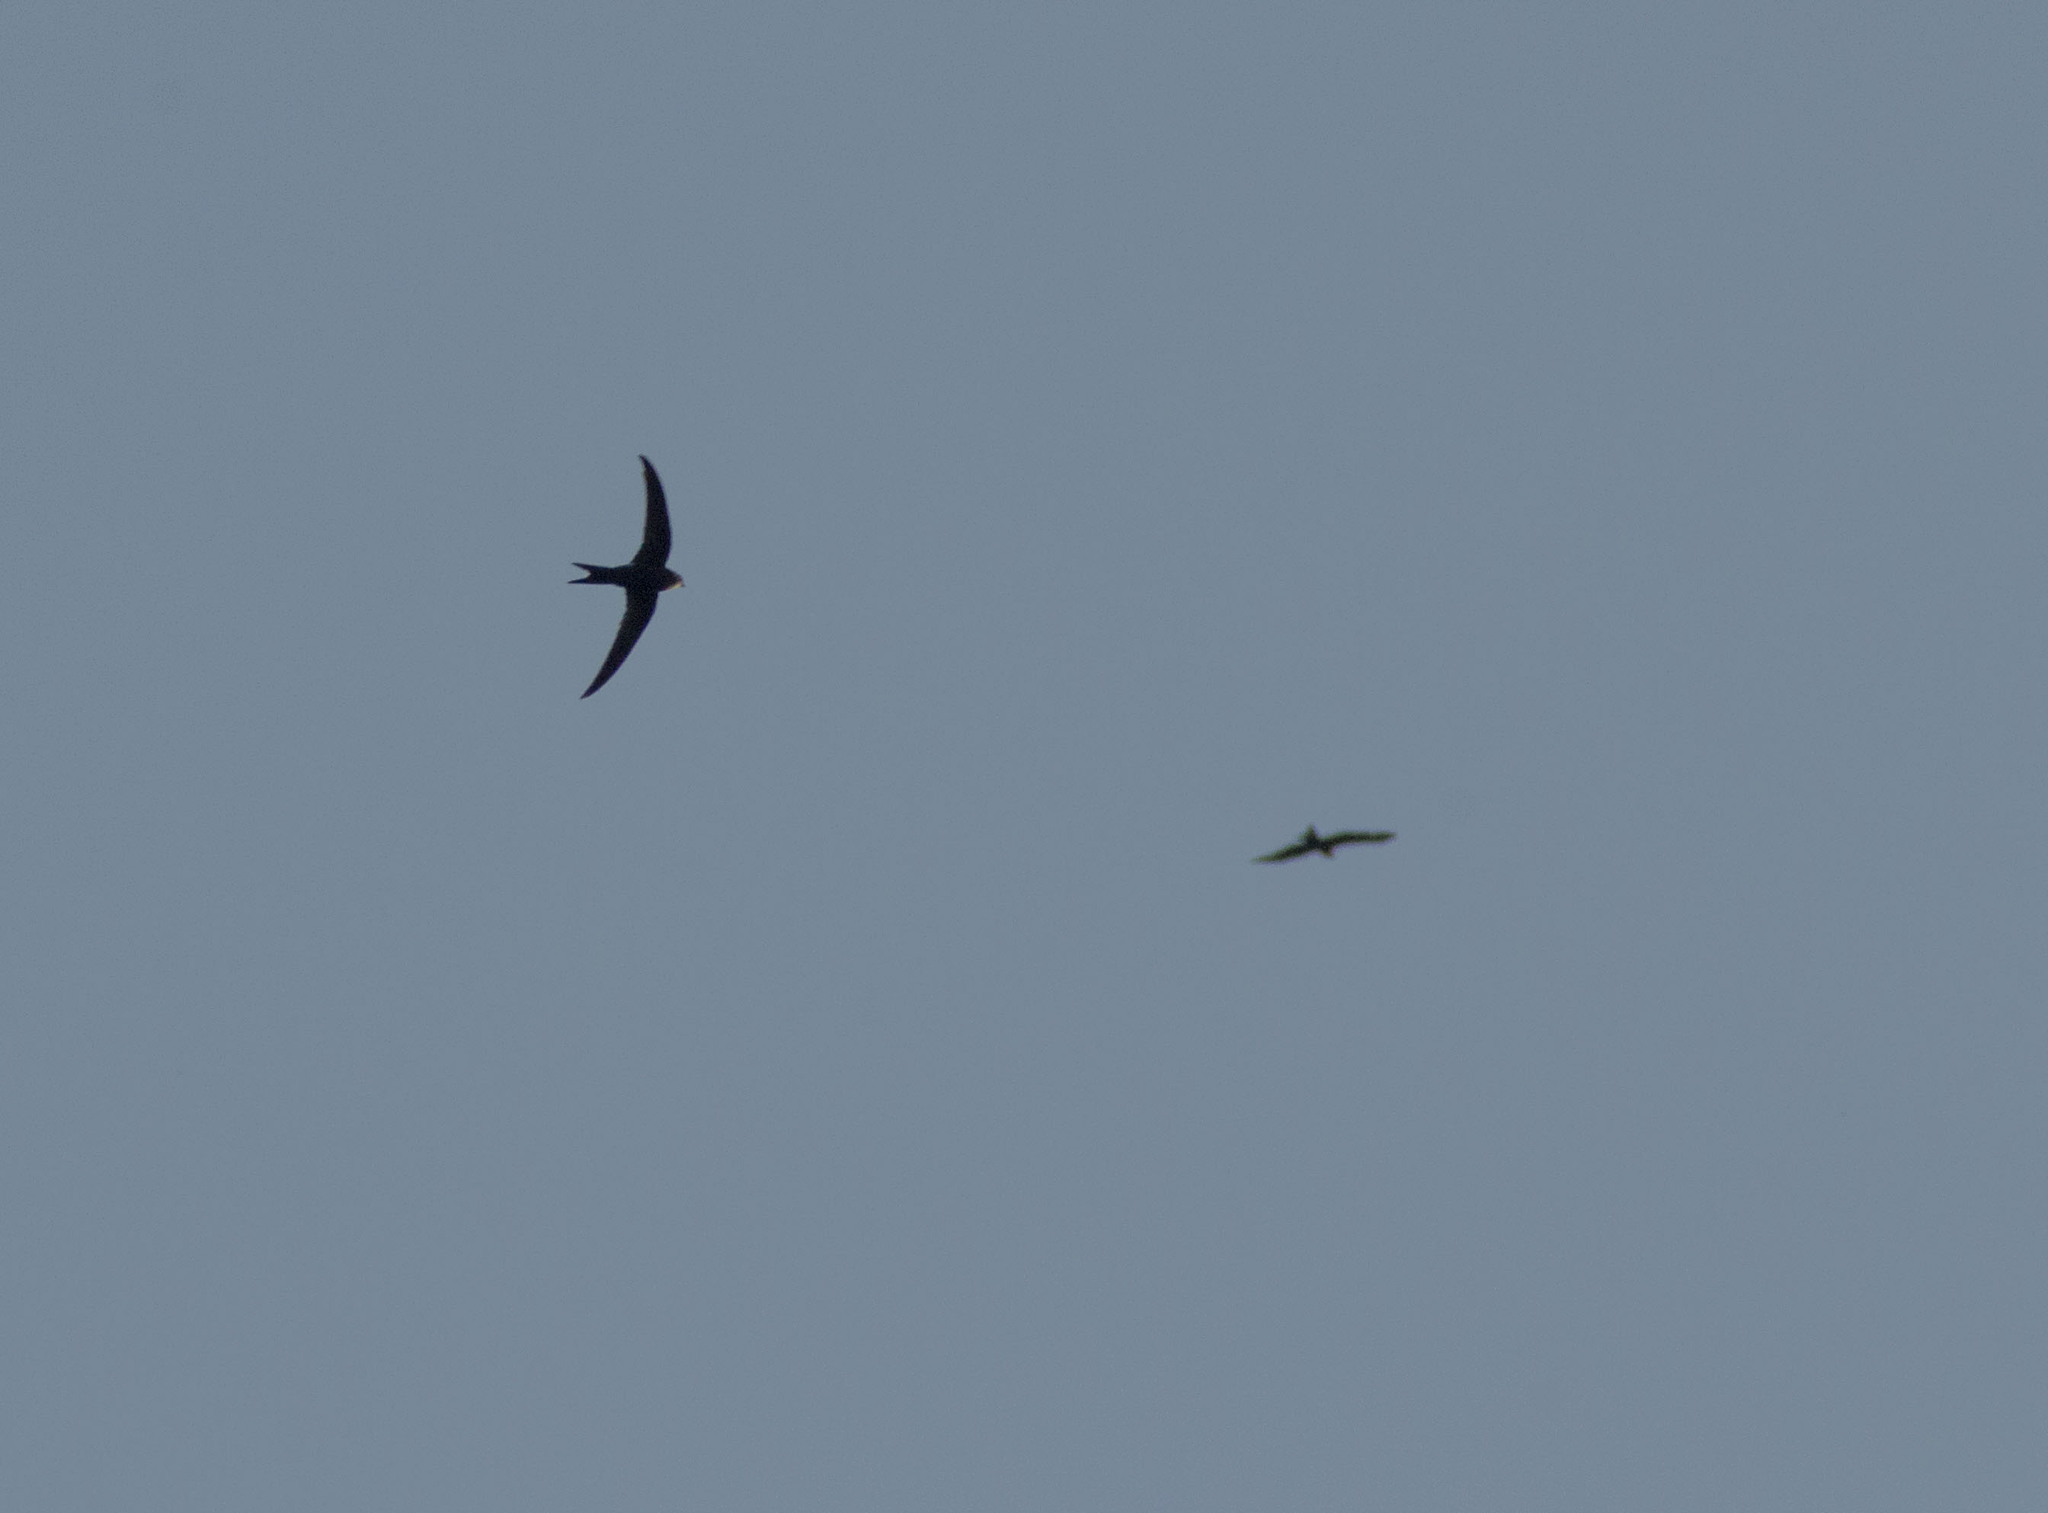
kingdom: Animalia
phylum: Chordata
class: Aves
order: Apodiformes
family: Apodidae
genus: Apus
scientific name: Apus apus
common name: Common swift
